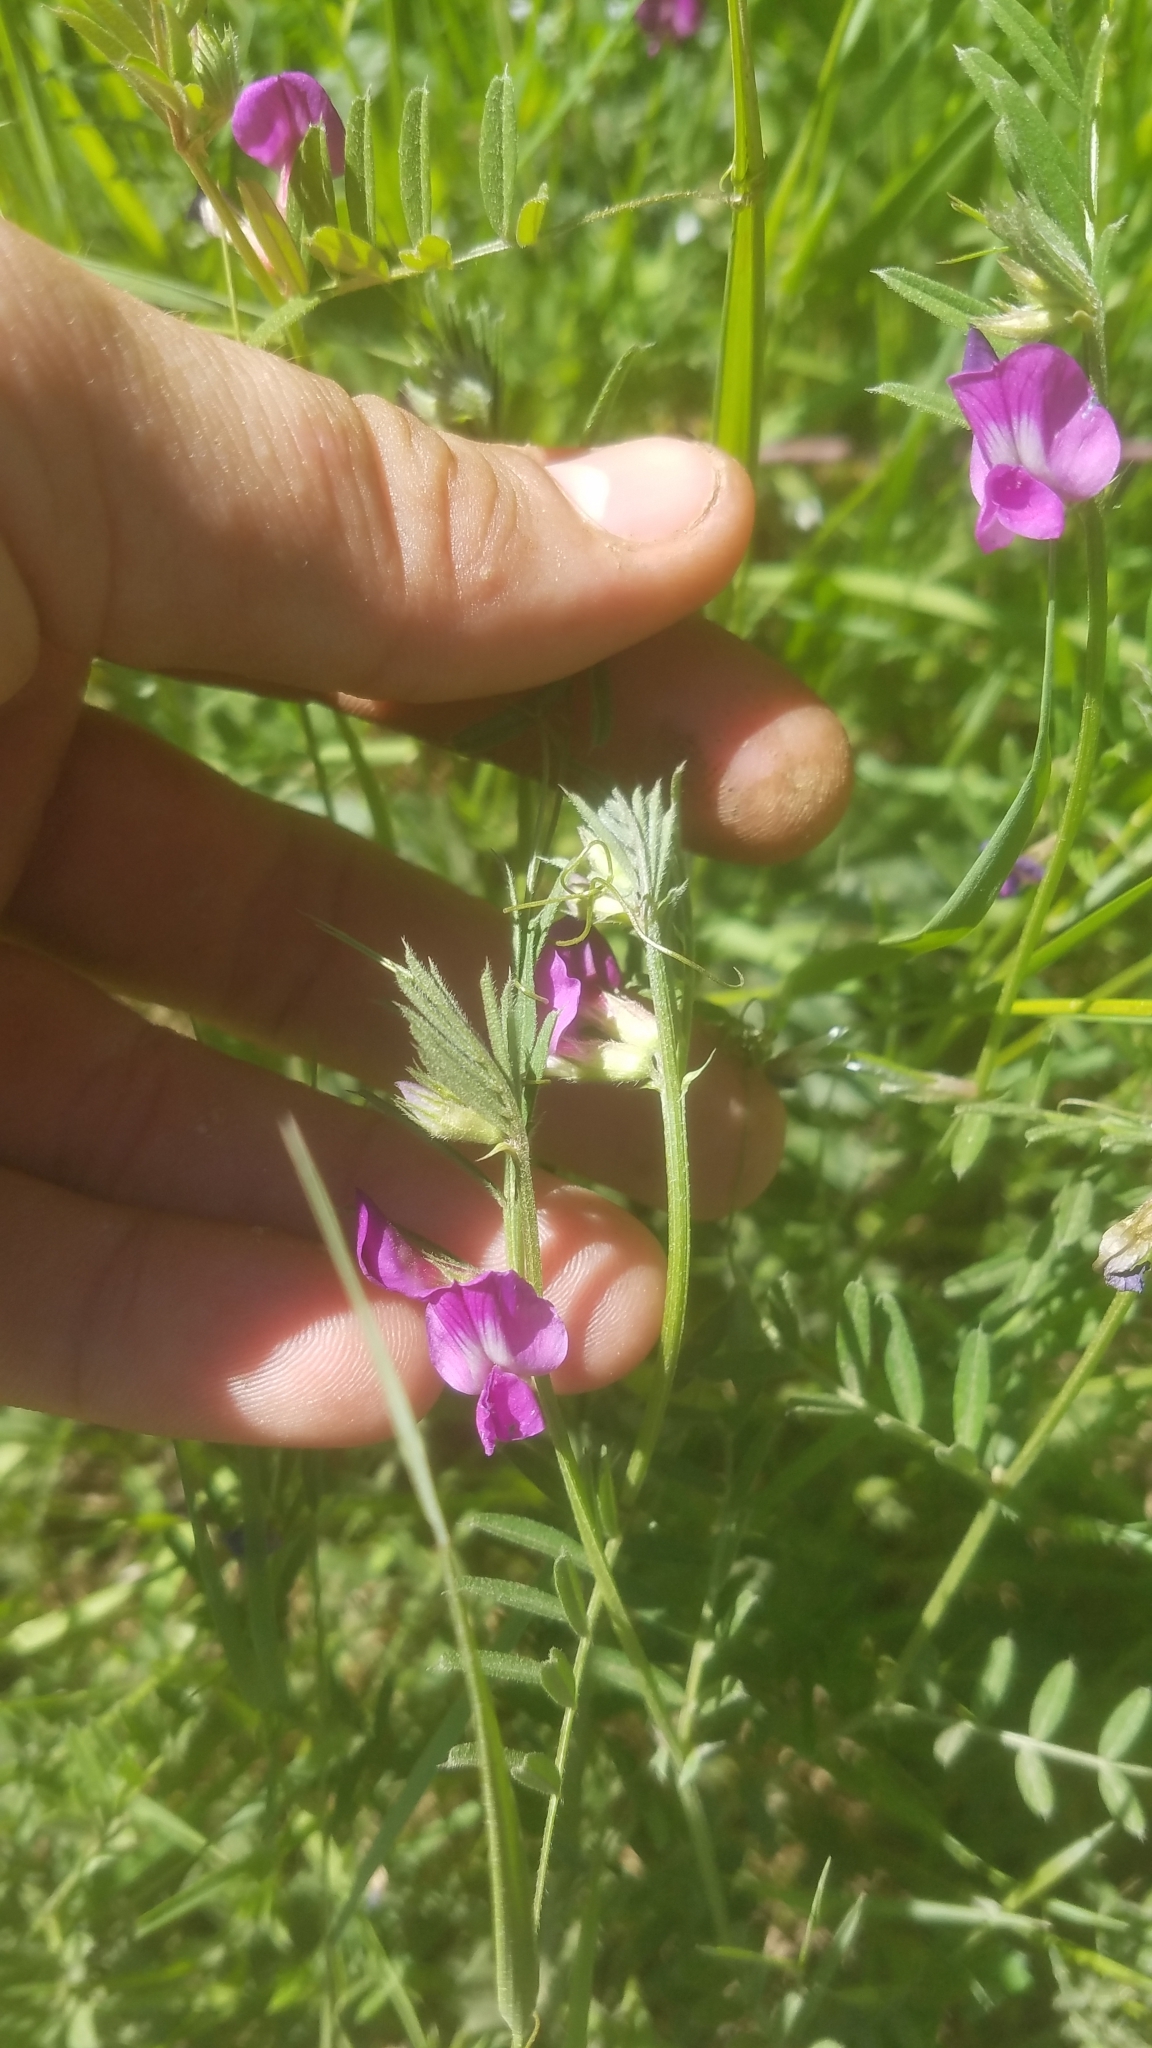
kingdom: Plantae
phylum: Tracheophyta
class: Magnoliopsida
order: Fabales
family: Fabaceae
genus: Vicia
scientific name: Vicia sativa
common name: Garden vetch
